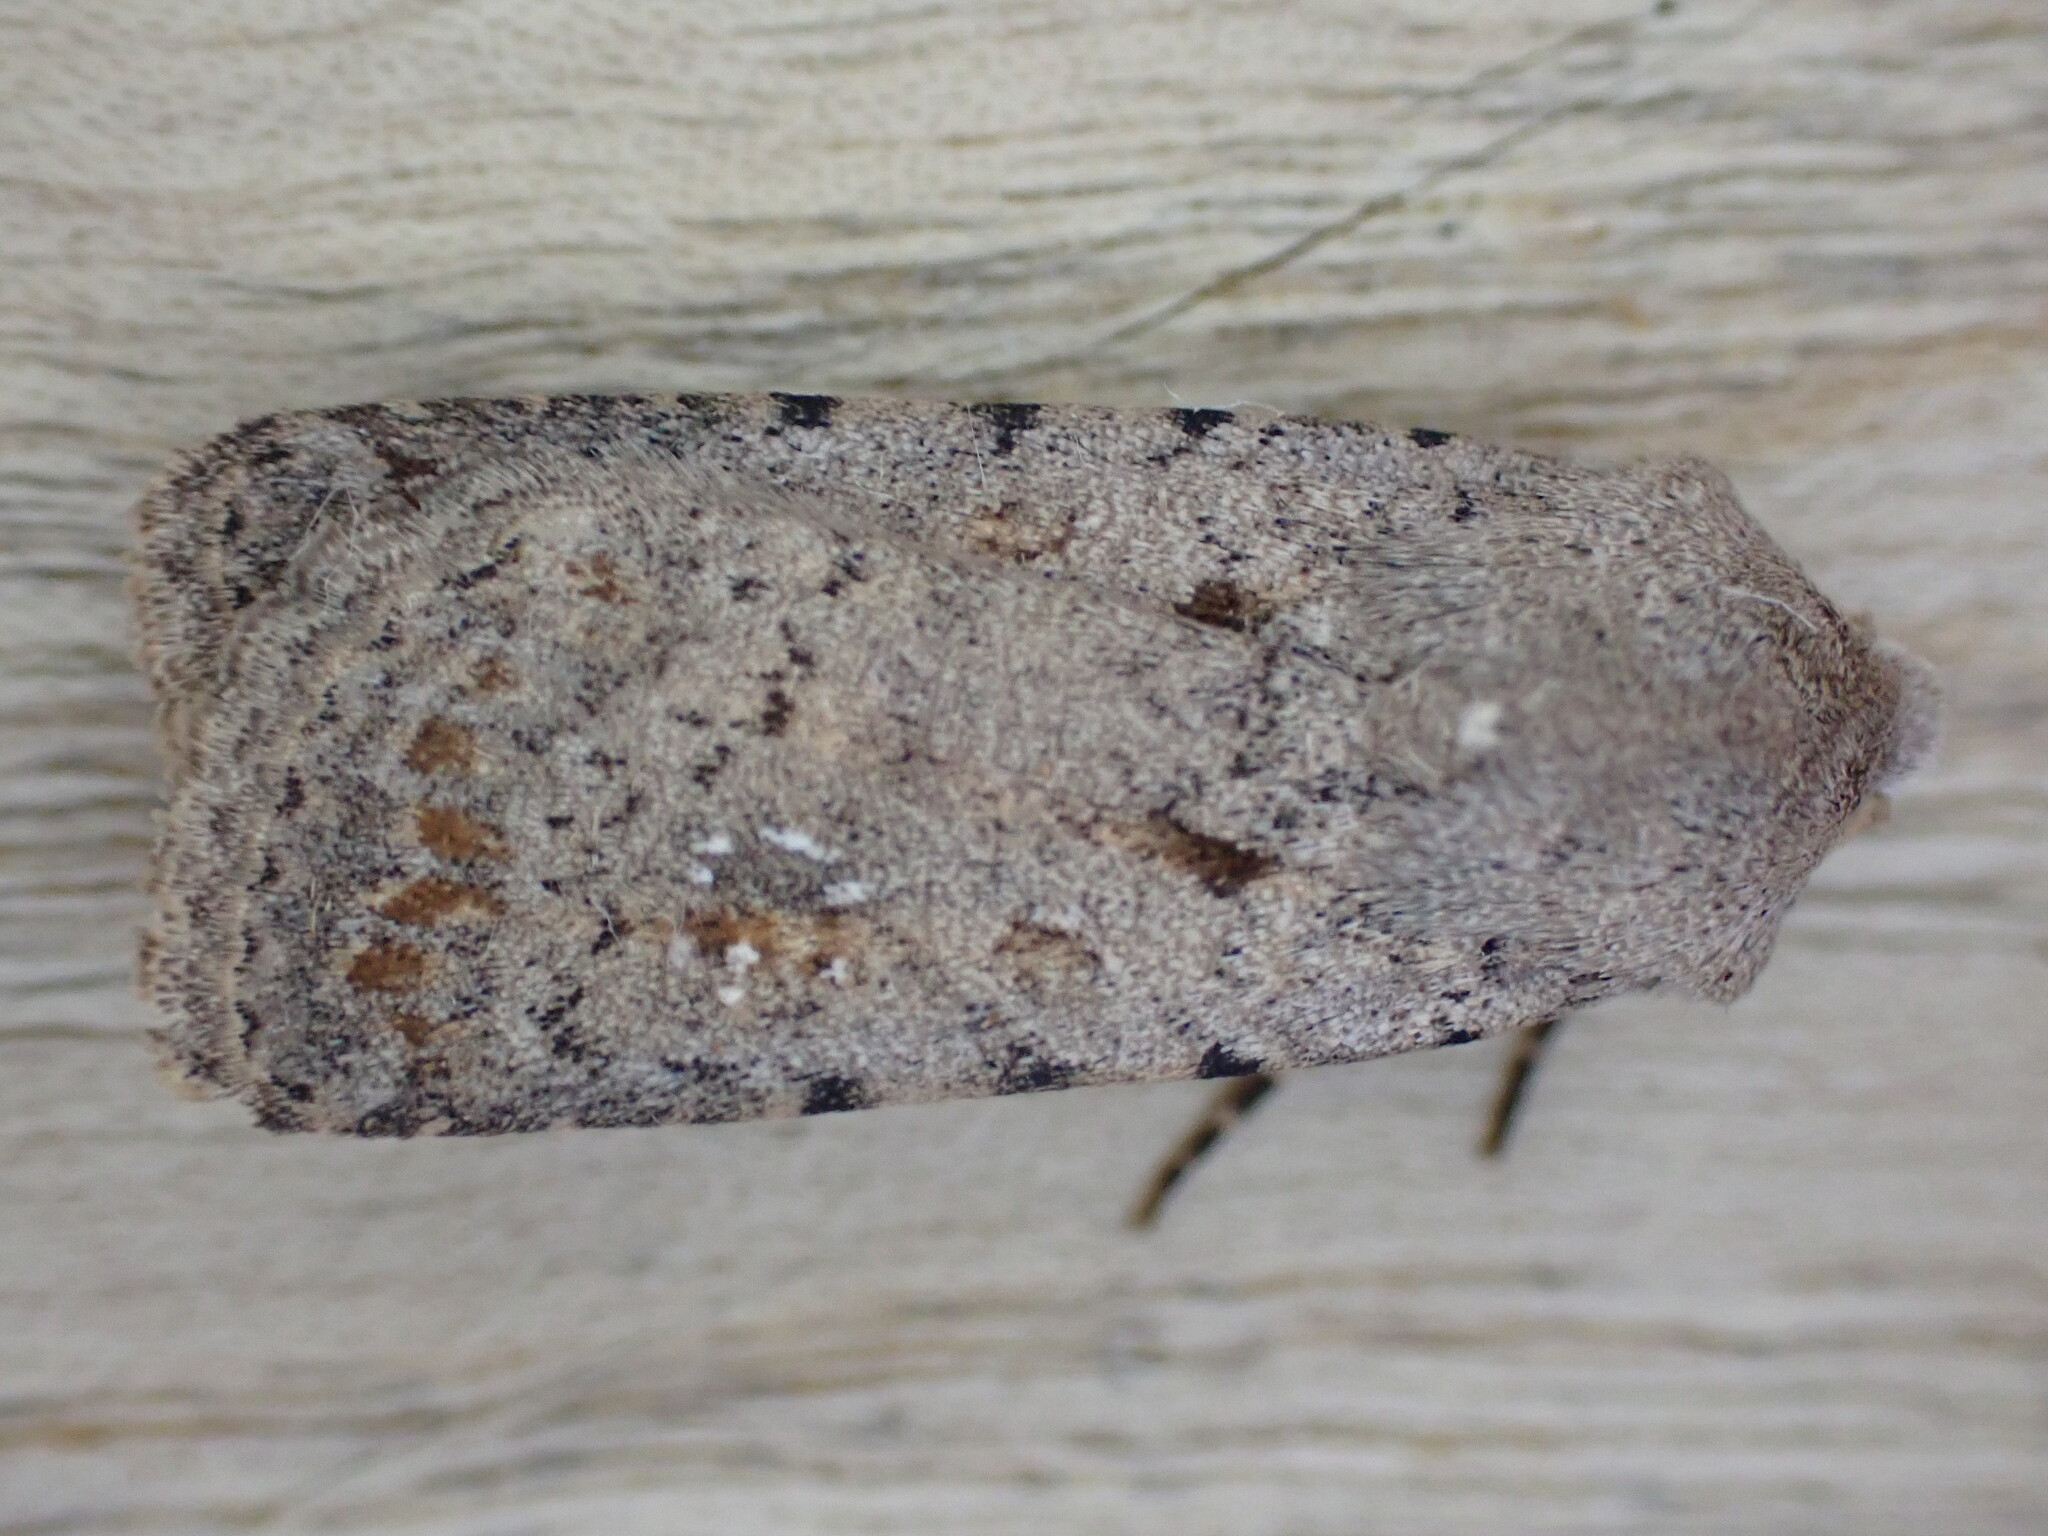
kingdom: Animalia
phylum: Arthropoda
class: Insecta
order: Lepidoptera
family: Noctuidae
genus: Caradrina
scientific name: Caradrina clavipalpis
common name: Pale mottled willow
